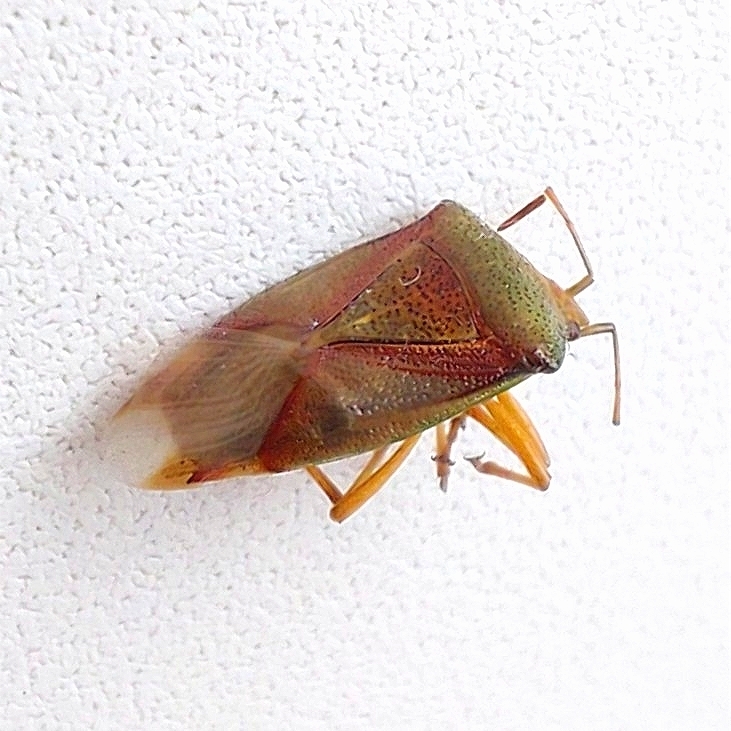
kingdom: Animalia
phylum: Arthropoda
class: Insecta
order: Hemiptera
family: Acanthosomatidae
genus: Elasmostethus
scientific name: Elasmostethus interstinctus
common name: Birch shieldbug
